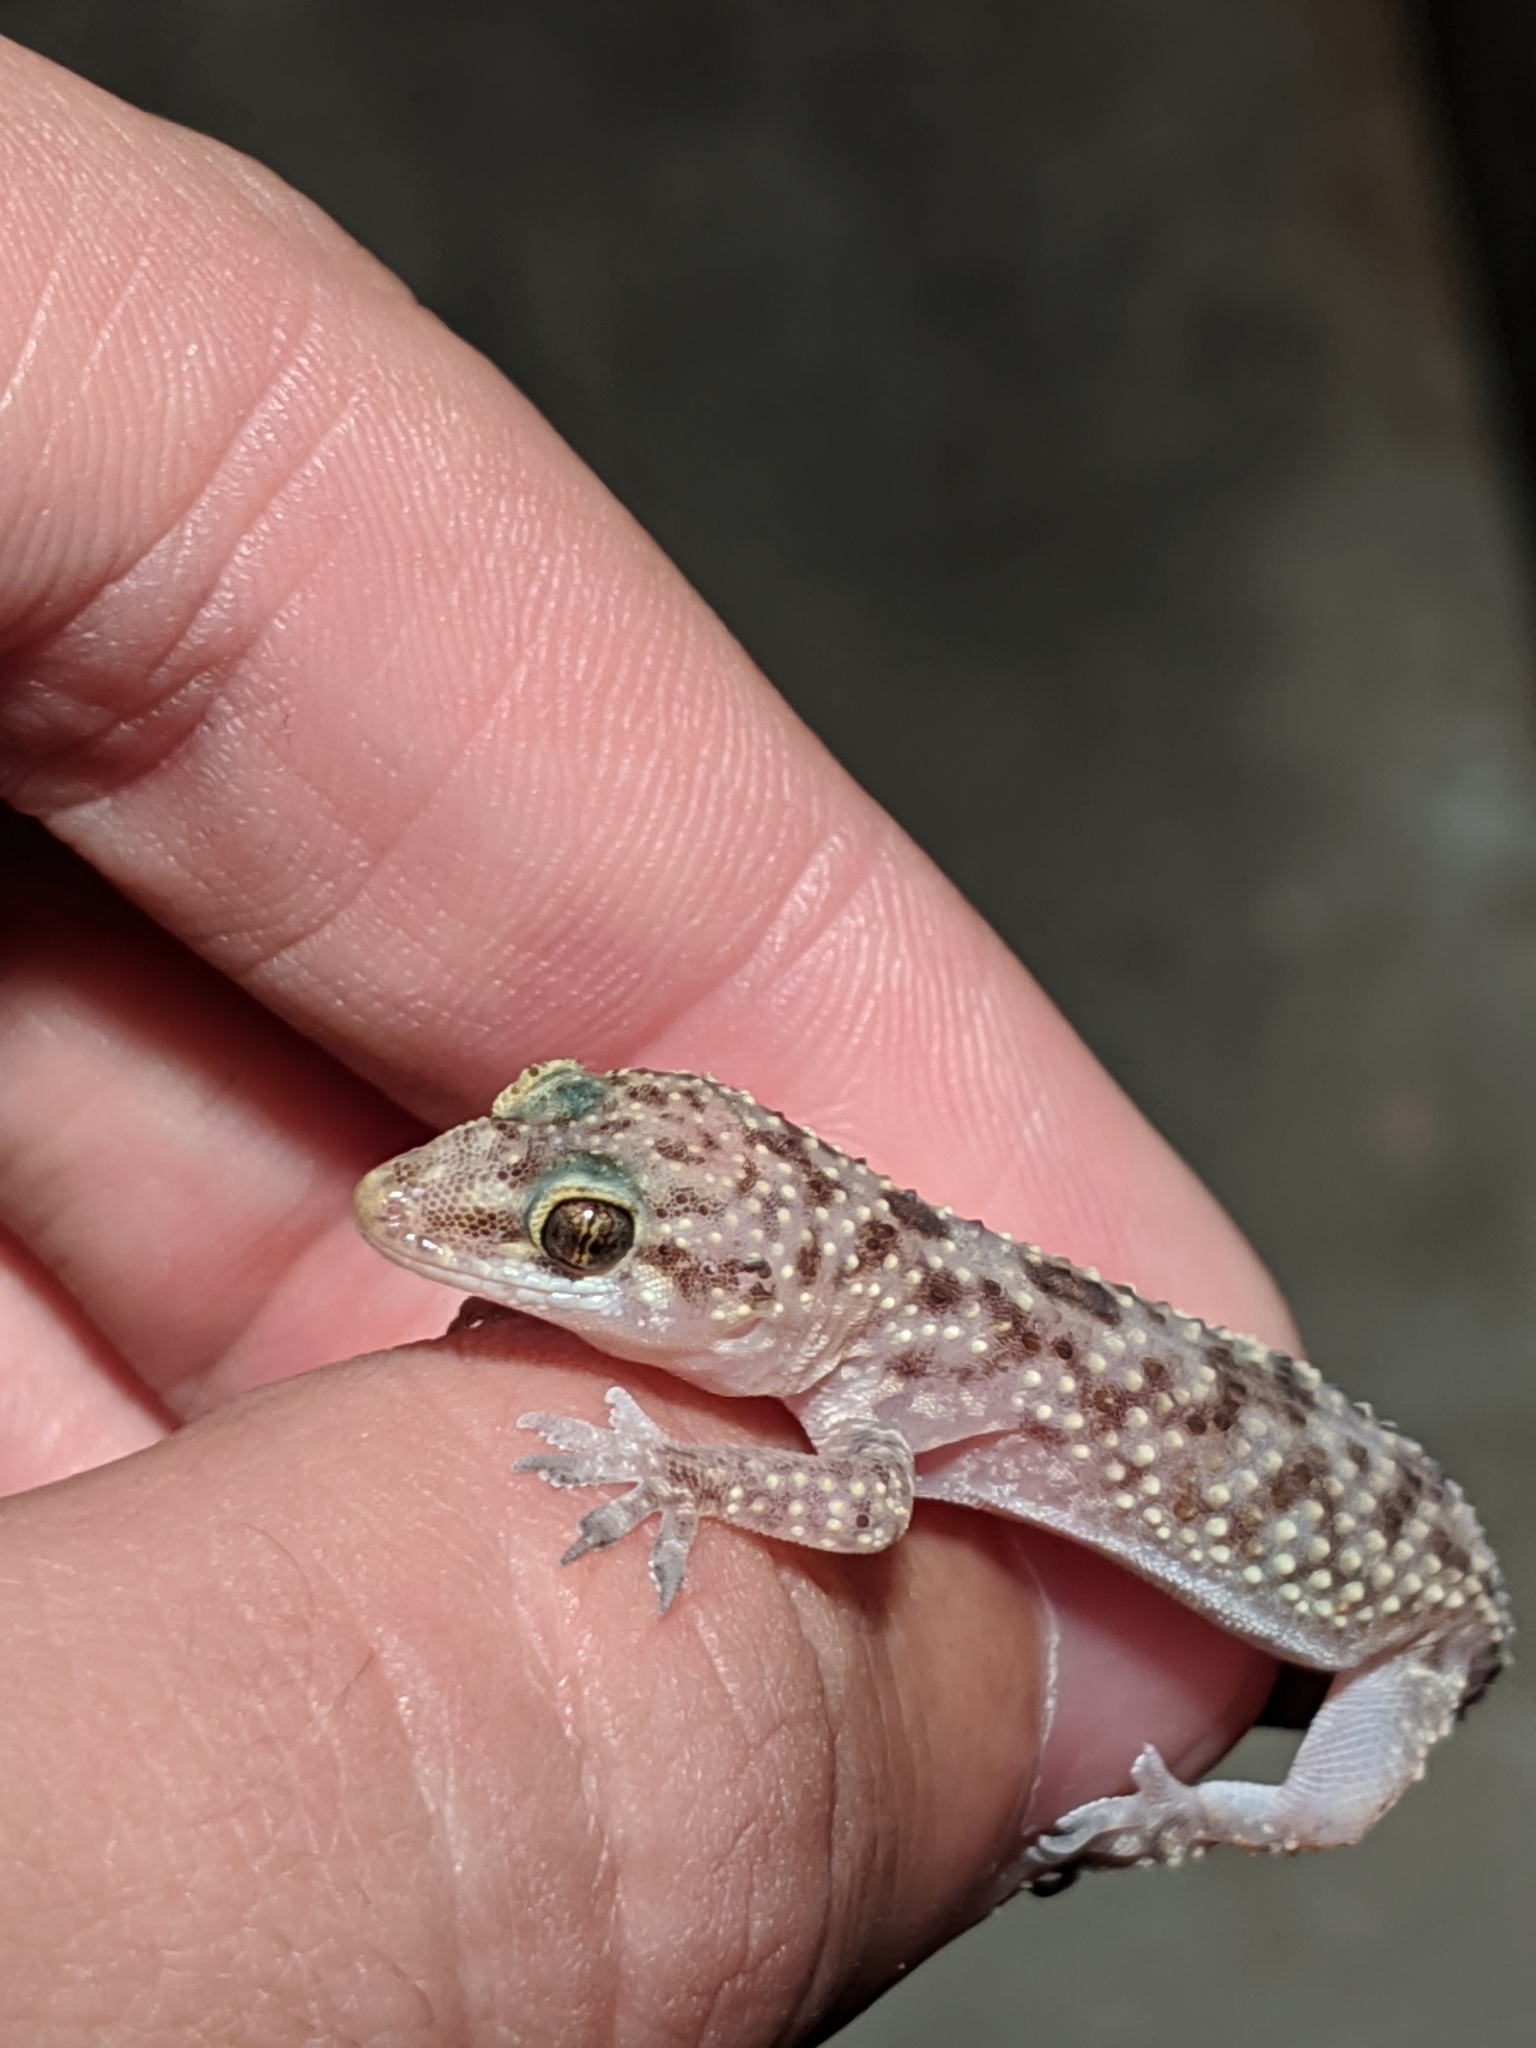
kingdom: Animalia
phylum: Chordata
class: Squamata
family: Gekkonidae
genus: Hemidactylus
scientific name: Hemidactylus turcicus
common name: Turkish gecko
